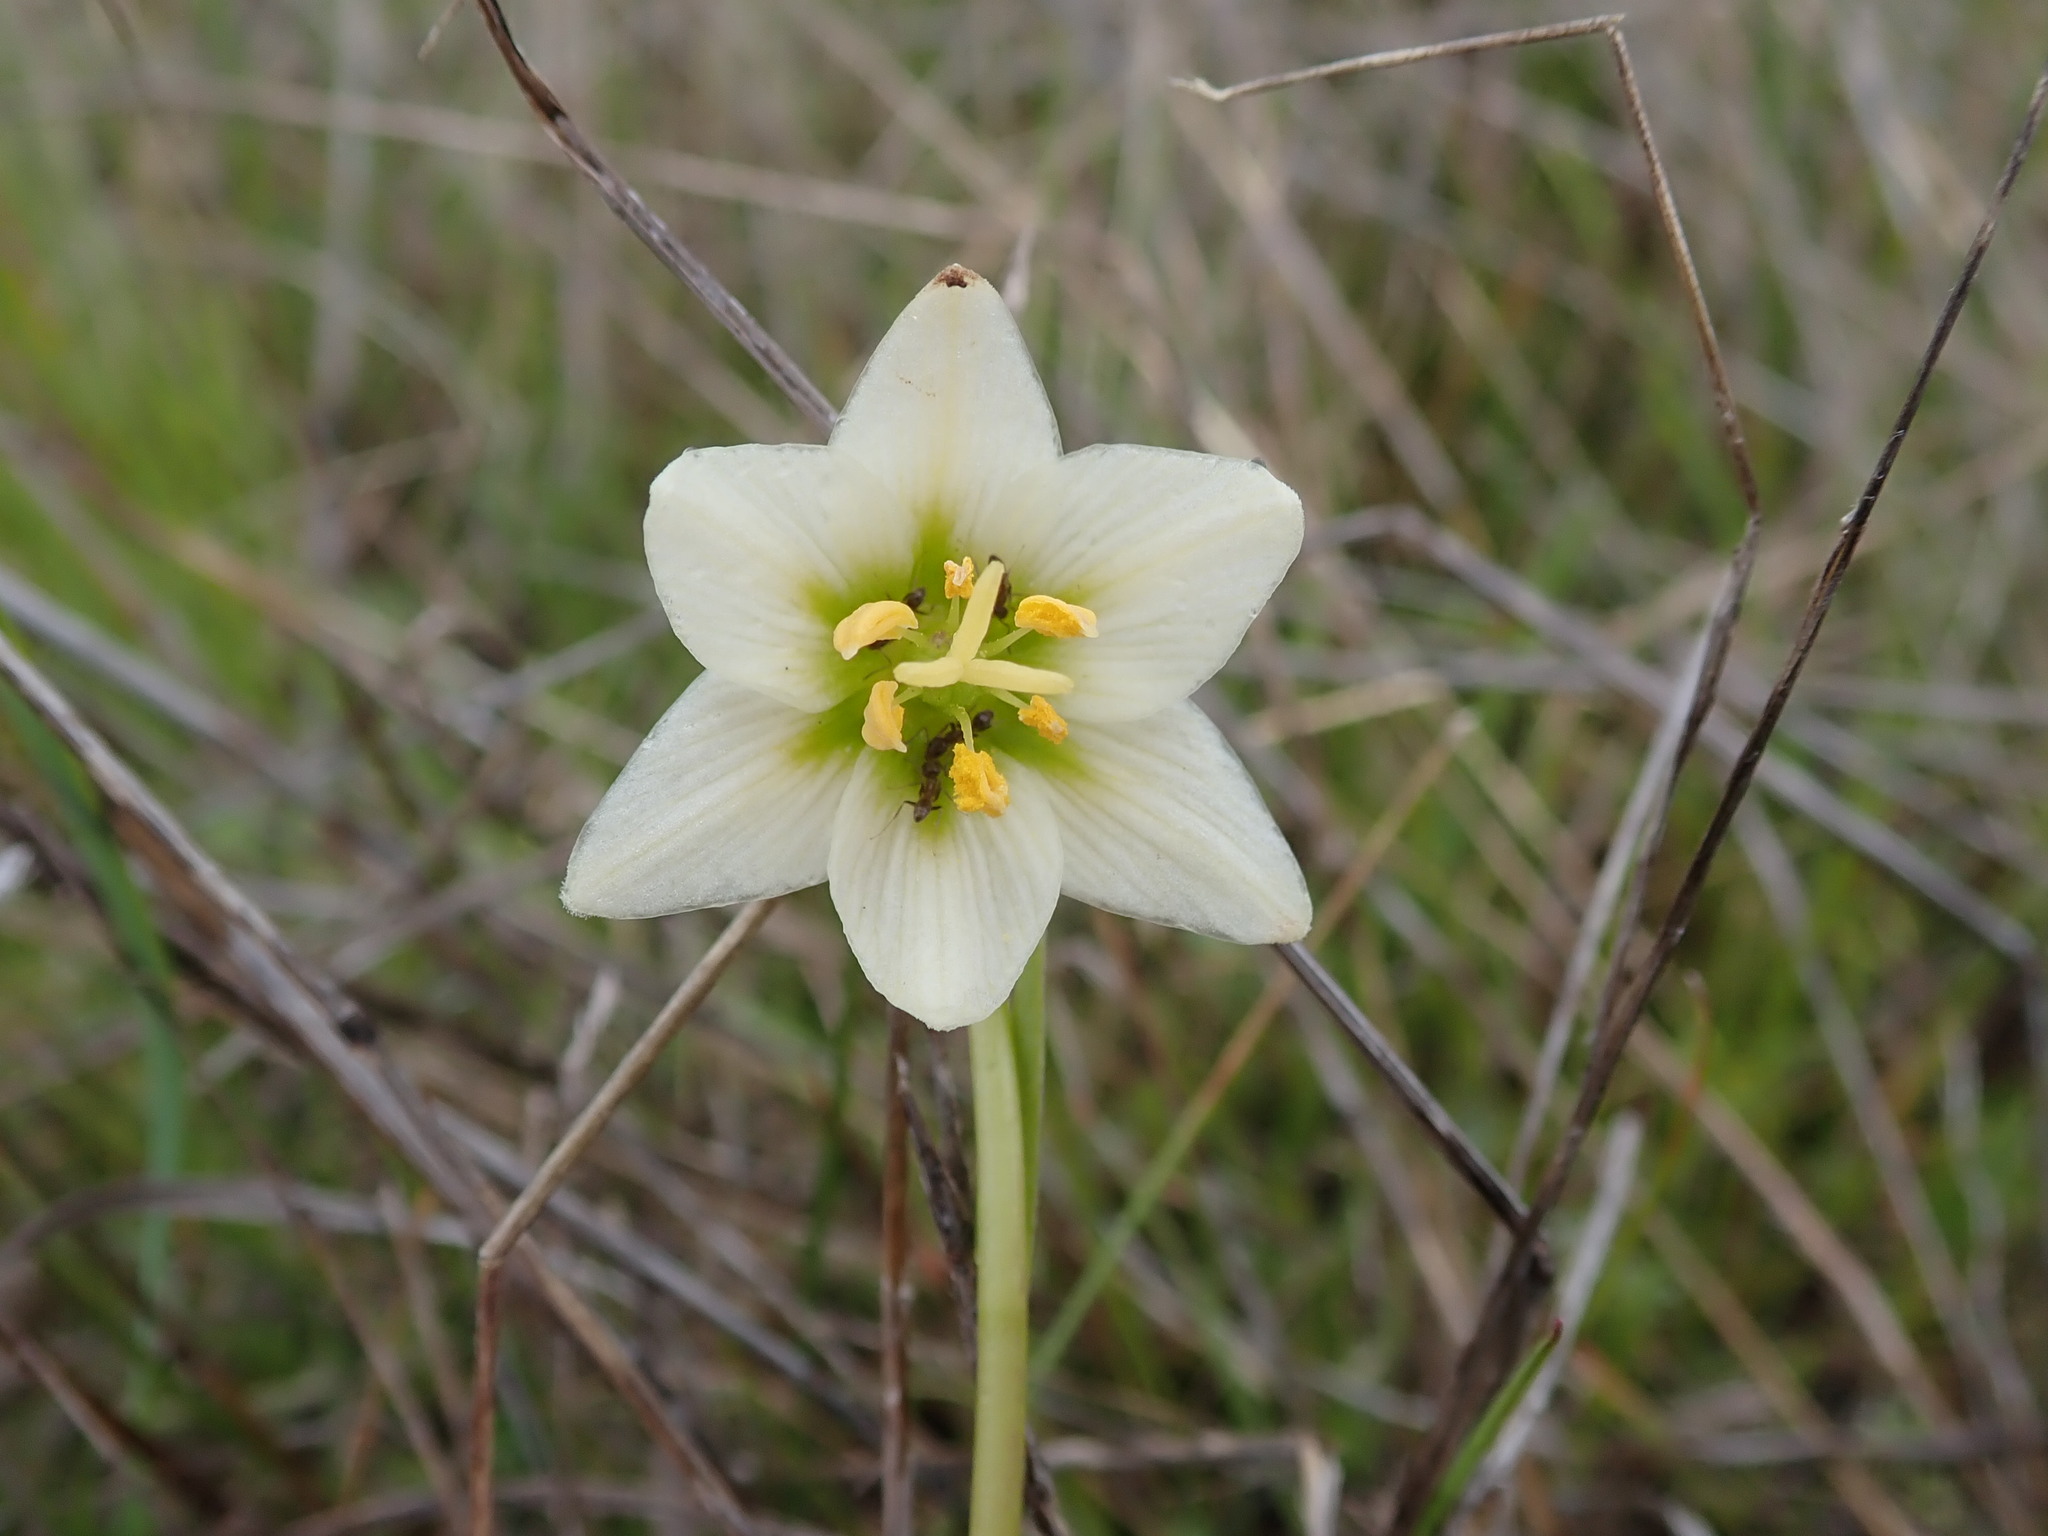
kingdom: Plantae
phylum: Tracheophyta
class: Liliopsida
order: Liliales
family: Liliaceae
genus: Fritillaria
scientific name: Fritillaria liliacea
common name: Fragrant fritillary
